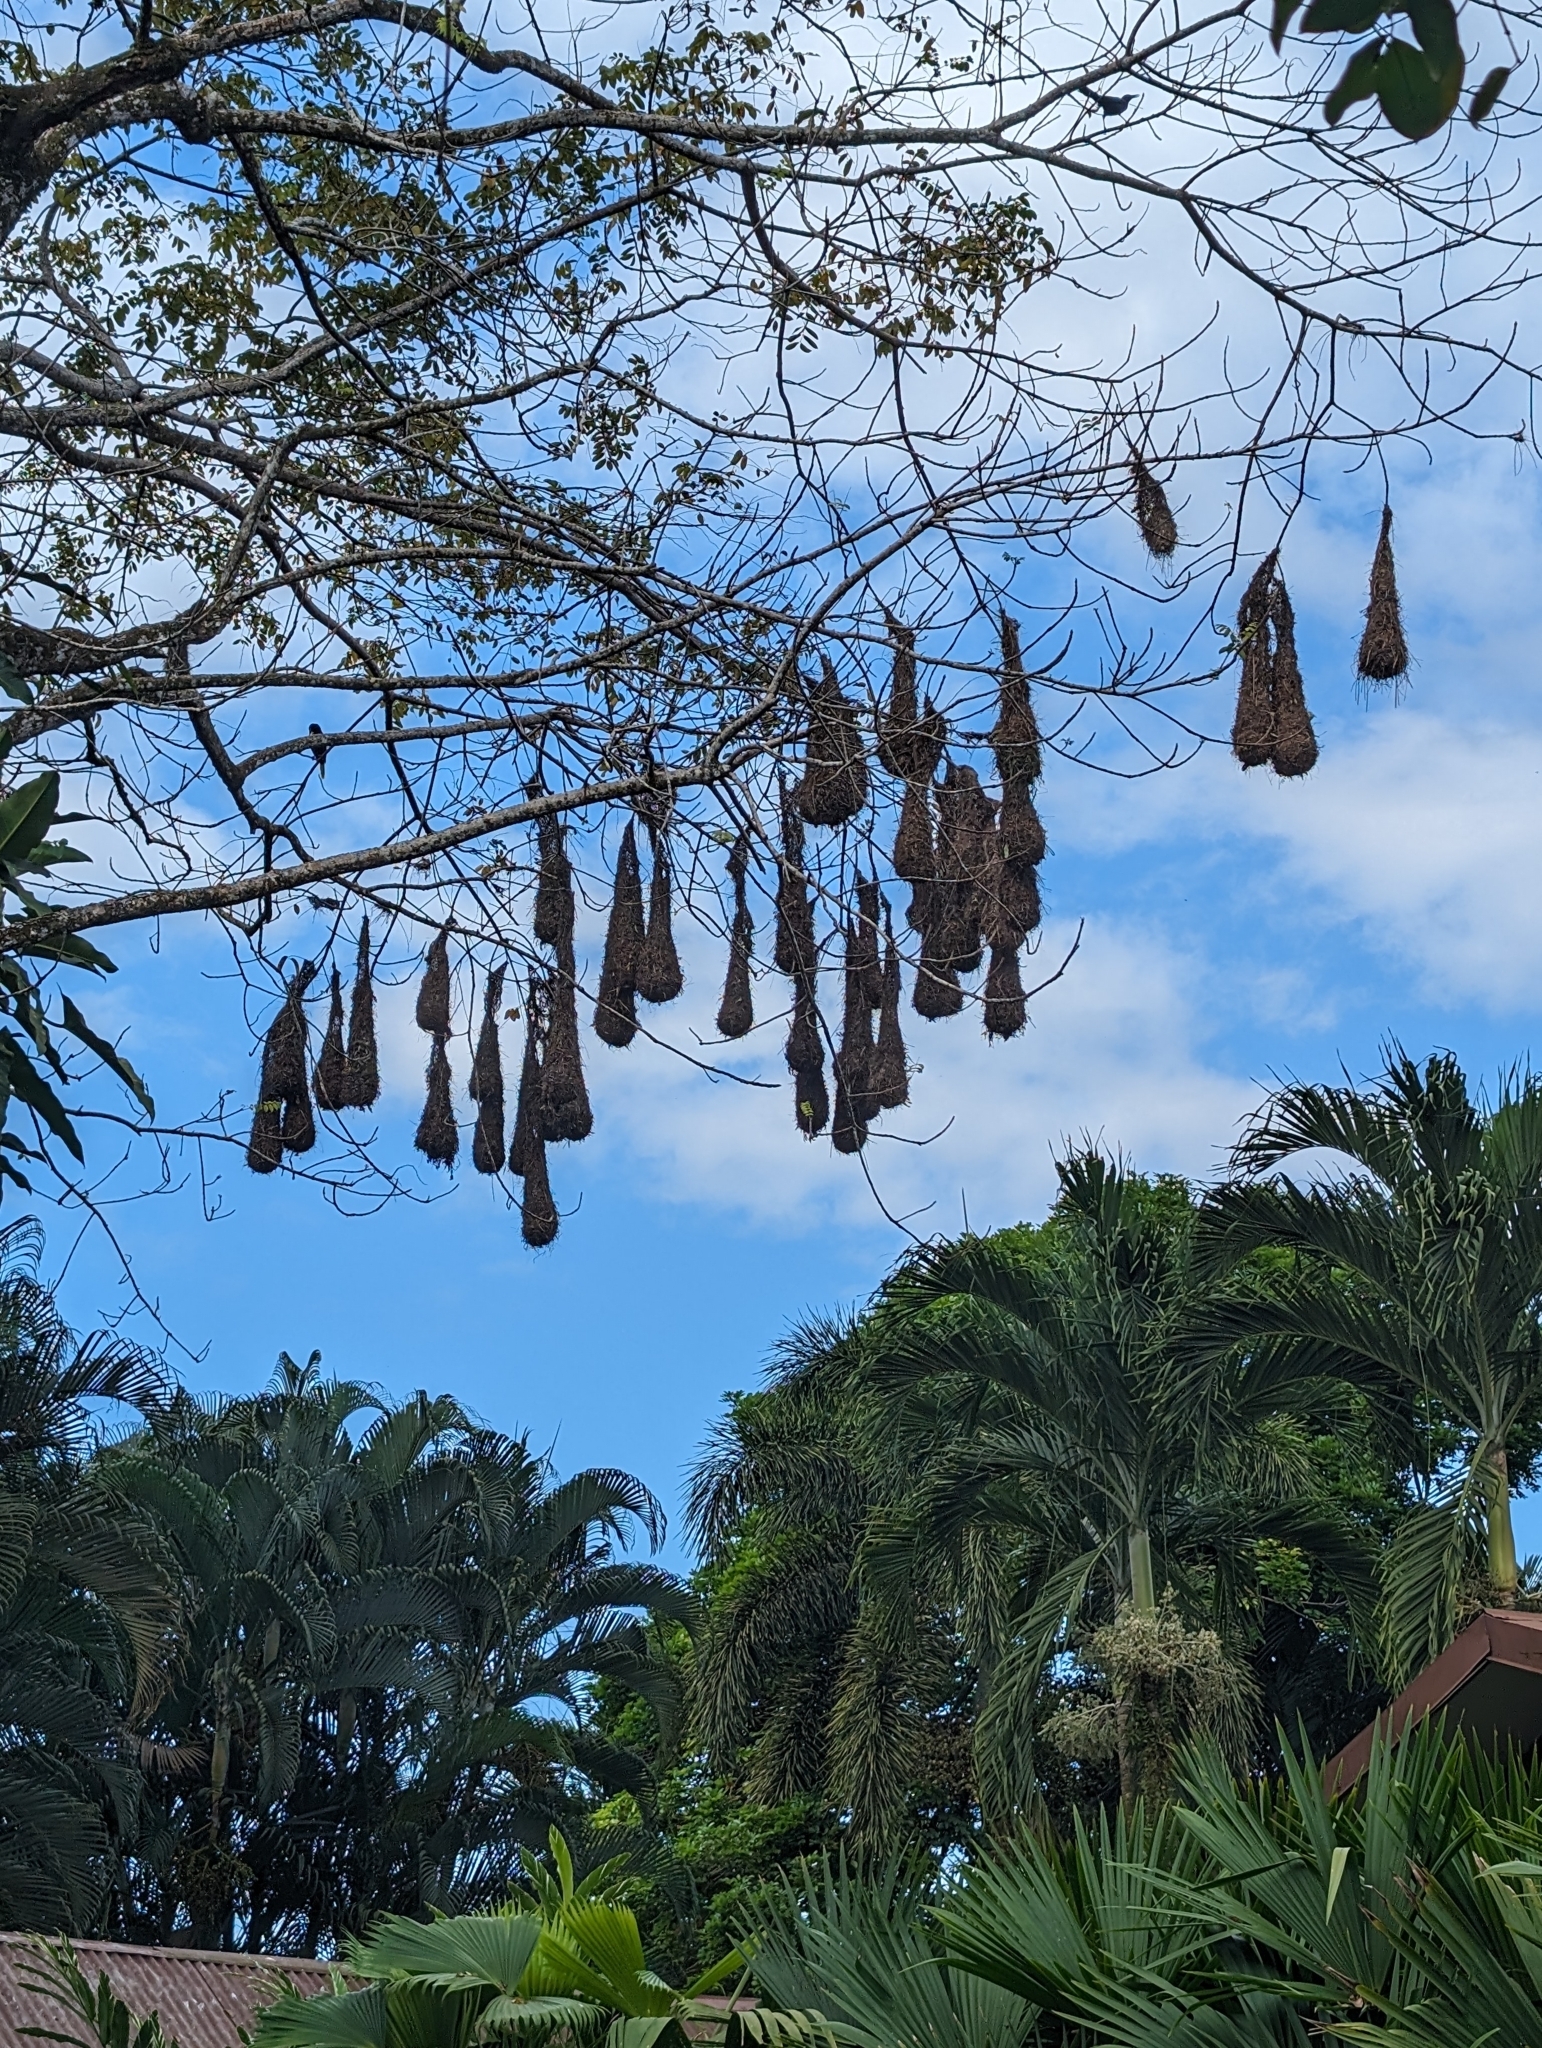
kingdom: Animalia
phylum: Chordata
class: Aves
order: Passeriformes
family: Icteridae
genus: Psarocolius
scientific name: Psarocolius montezuma
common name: Montezuma oropendola
